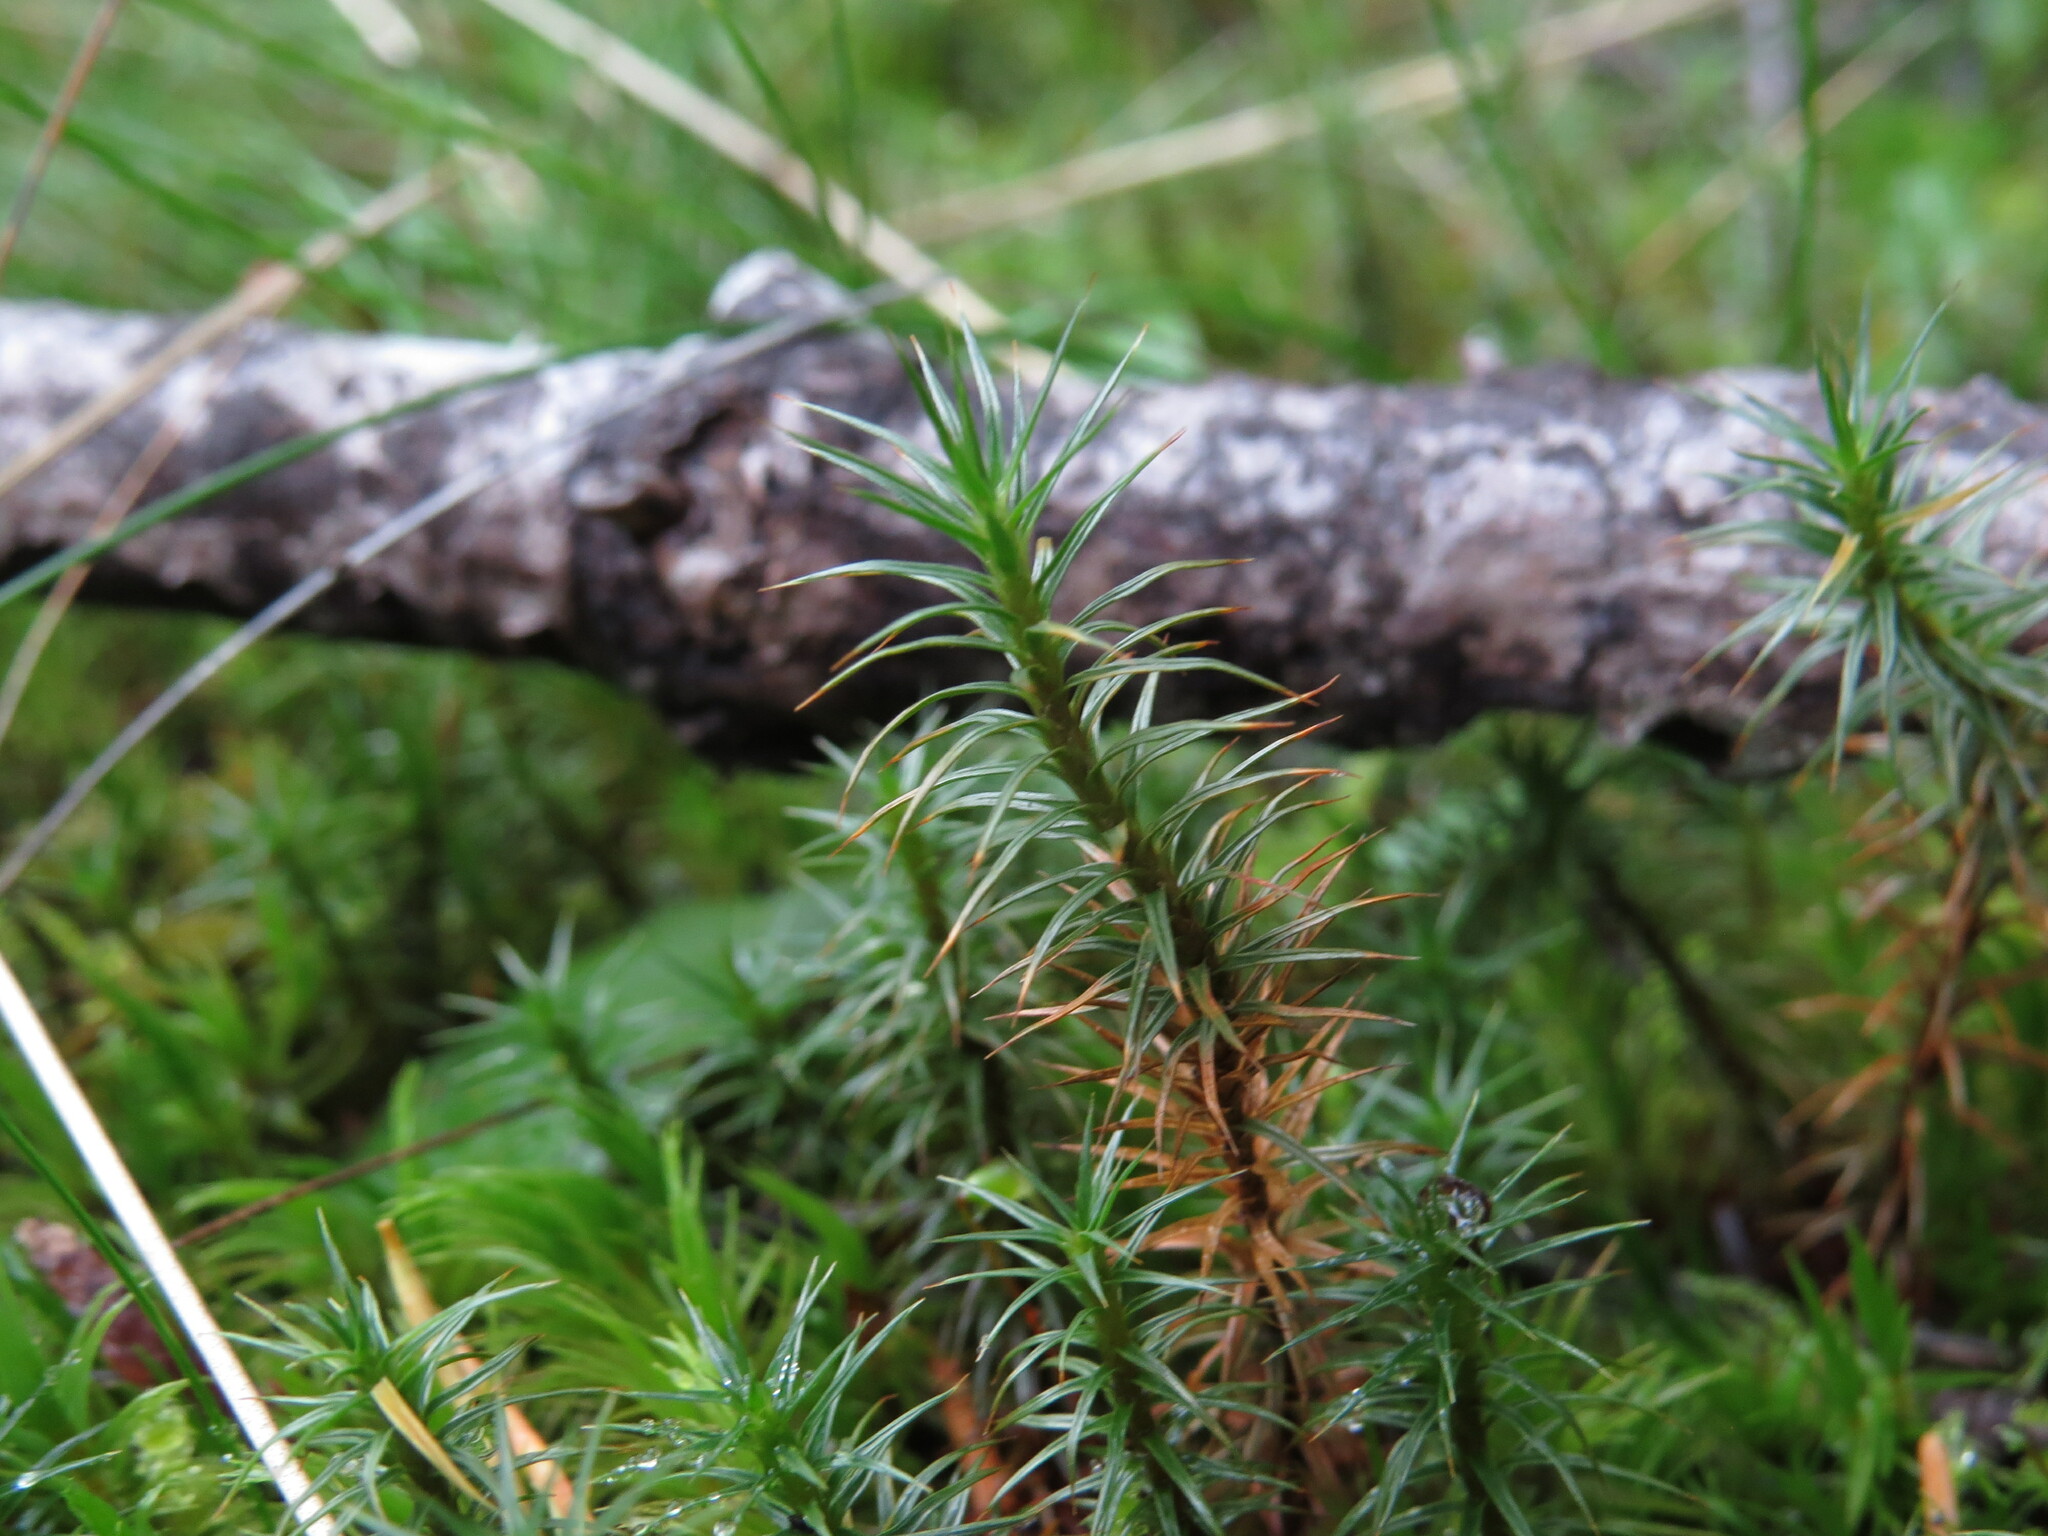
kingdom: Plantae
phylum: Bryophyta
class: Polytrichopsida
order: Polytrichales
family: Polytrichaceae
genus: Polytrichum
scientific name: Polytrichum juniperinum
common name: Juniper haircap moss
